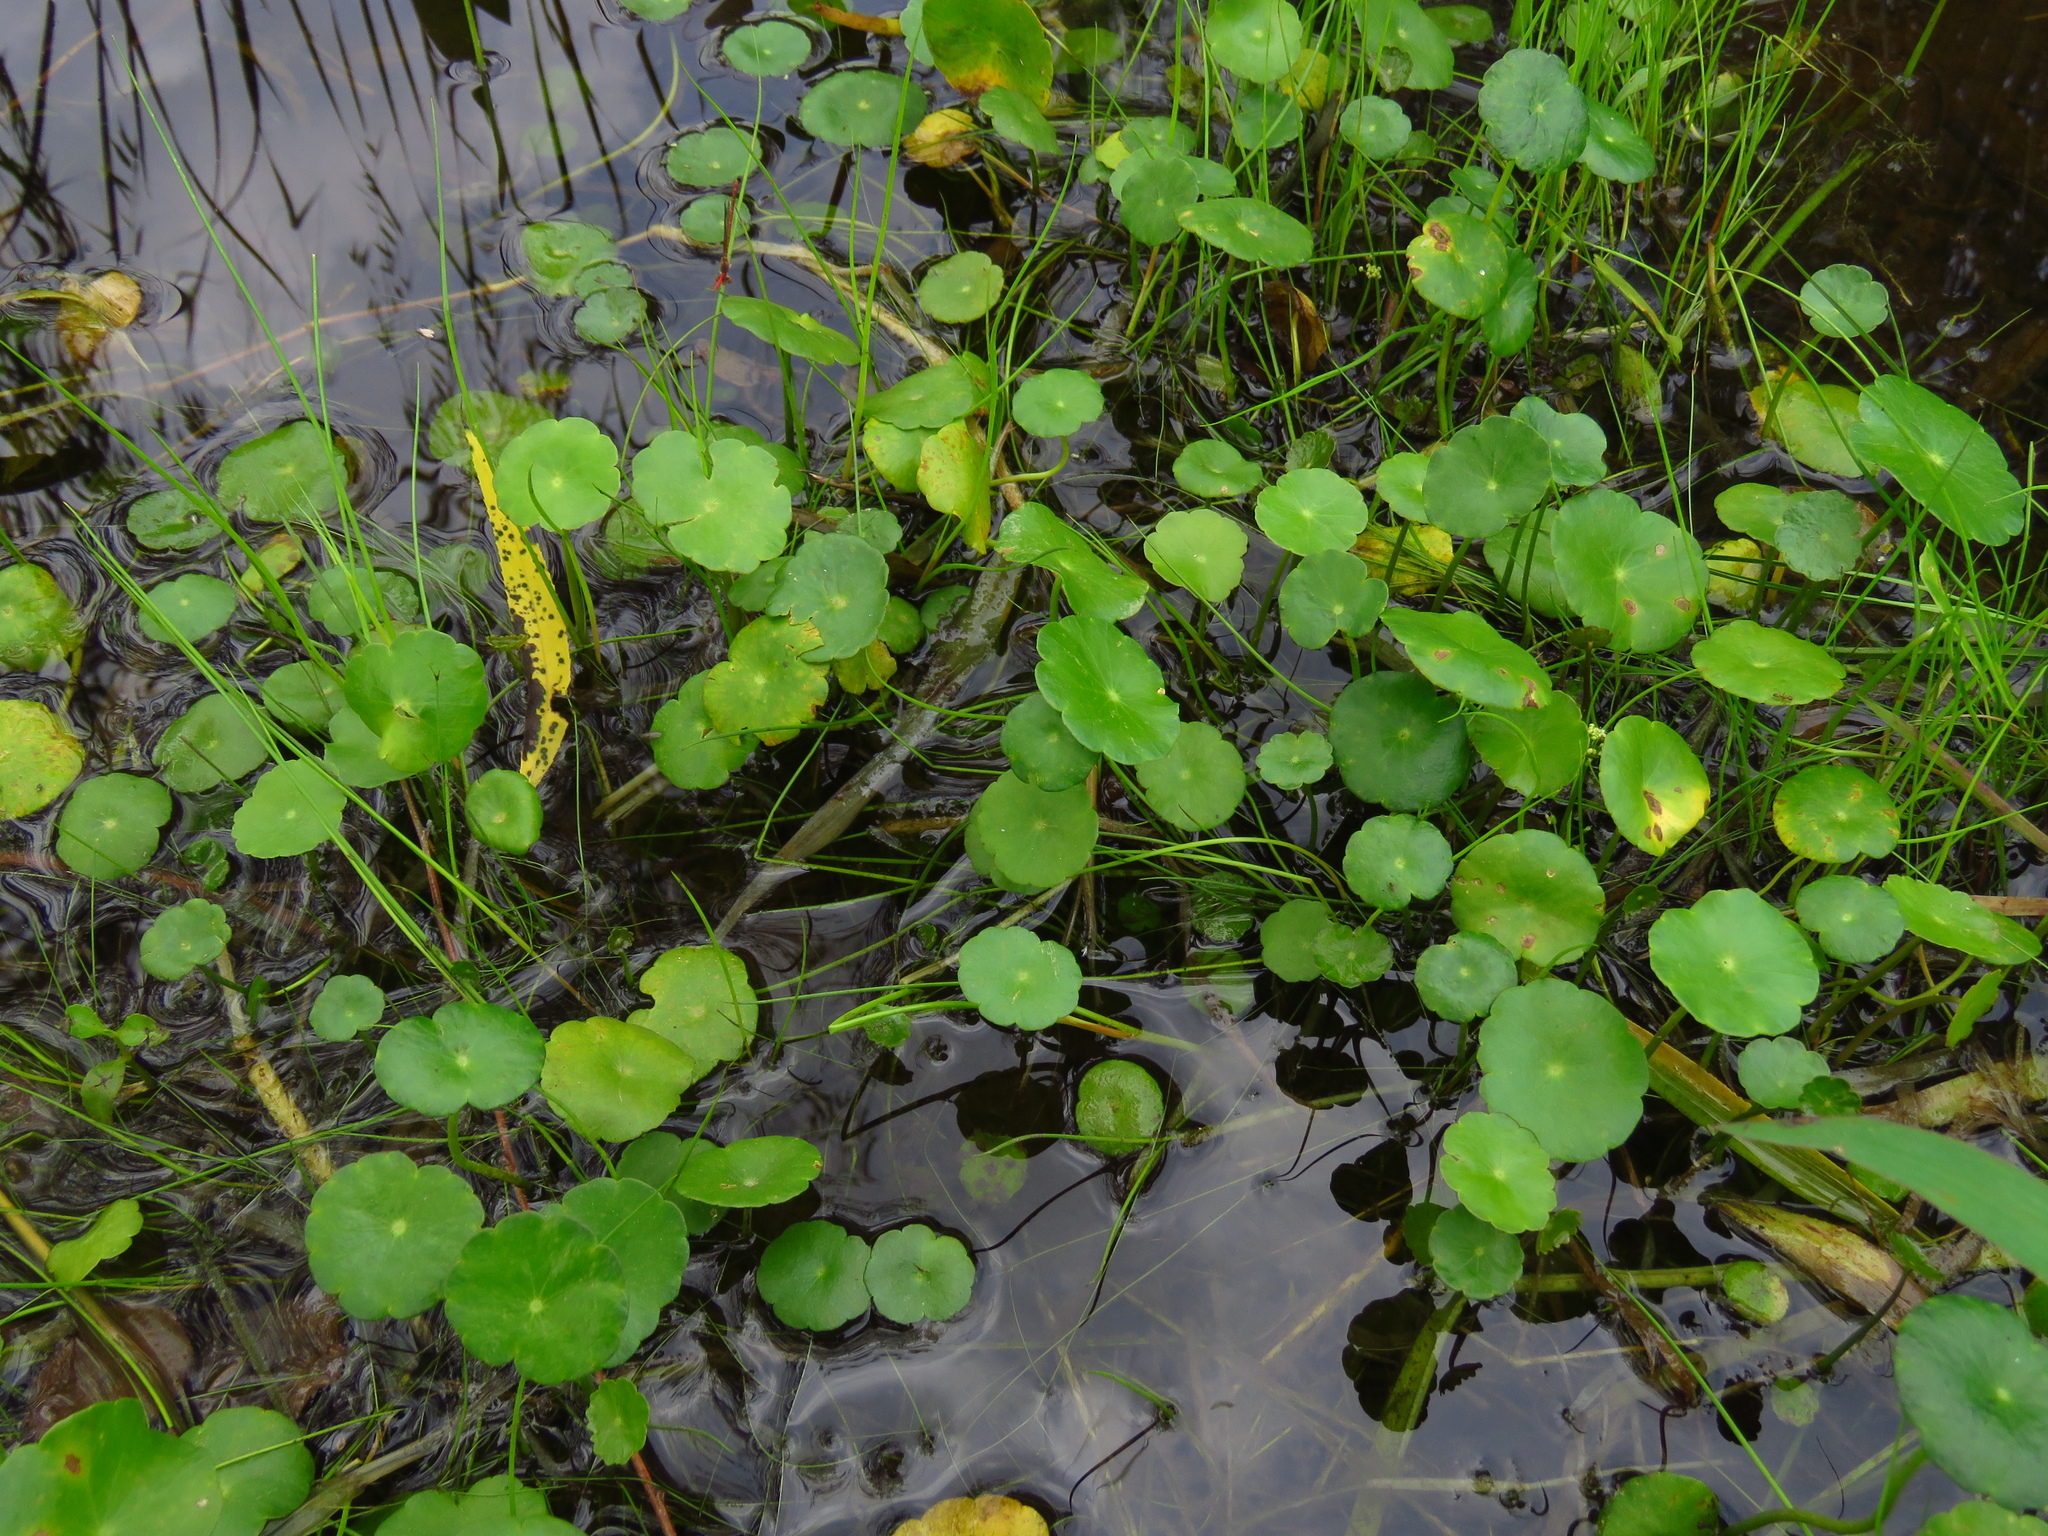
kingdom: Plantae
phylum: Tracheophyta
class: Magnoliopsida
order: Apiales
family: Araliaceae
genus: Hydrocotyle
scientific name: Hydrocotyle umbellata
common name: Water pennywort
